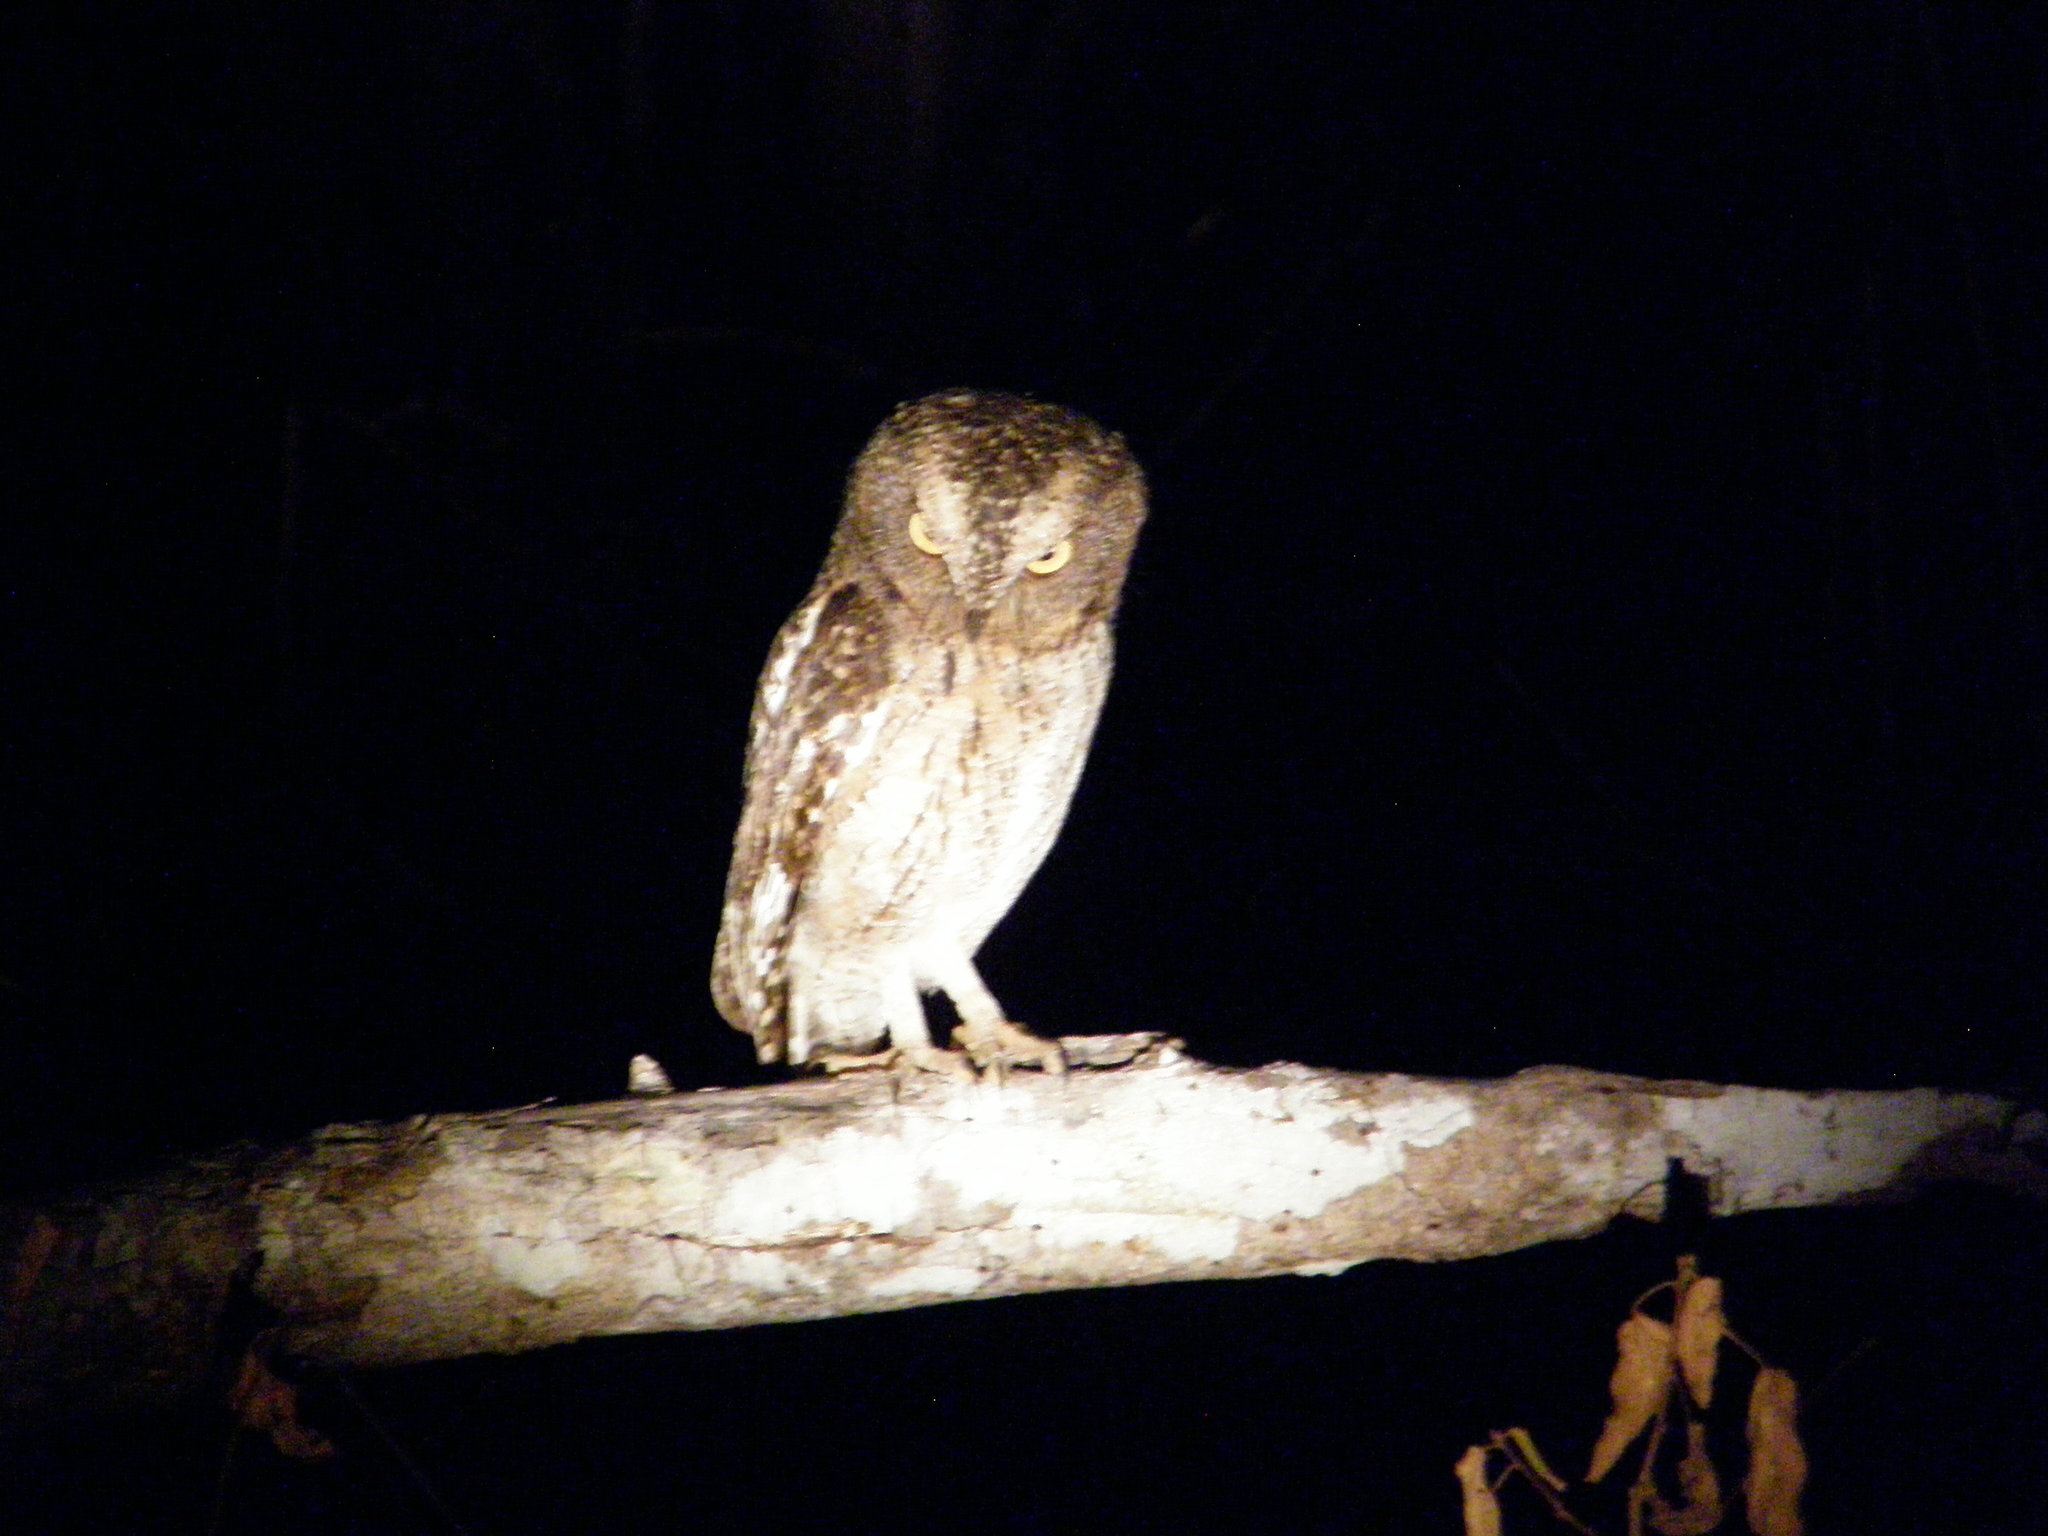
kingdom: Animalia
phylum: Chordata
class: Aves
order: Strigiformes
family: Strigidae
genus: Otus
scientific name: Otus rutilus
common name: Rainforest scops owl
